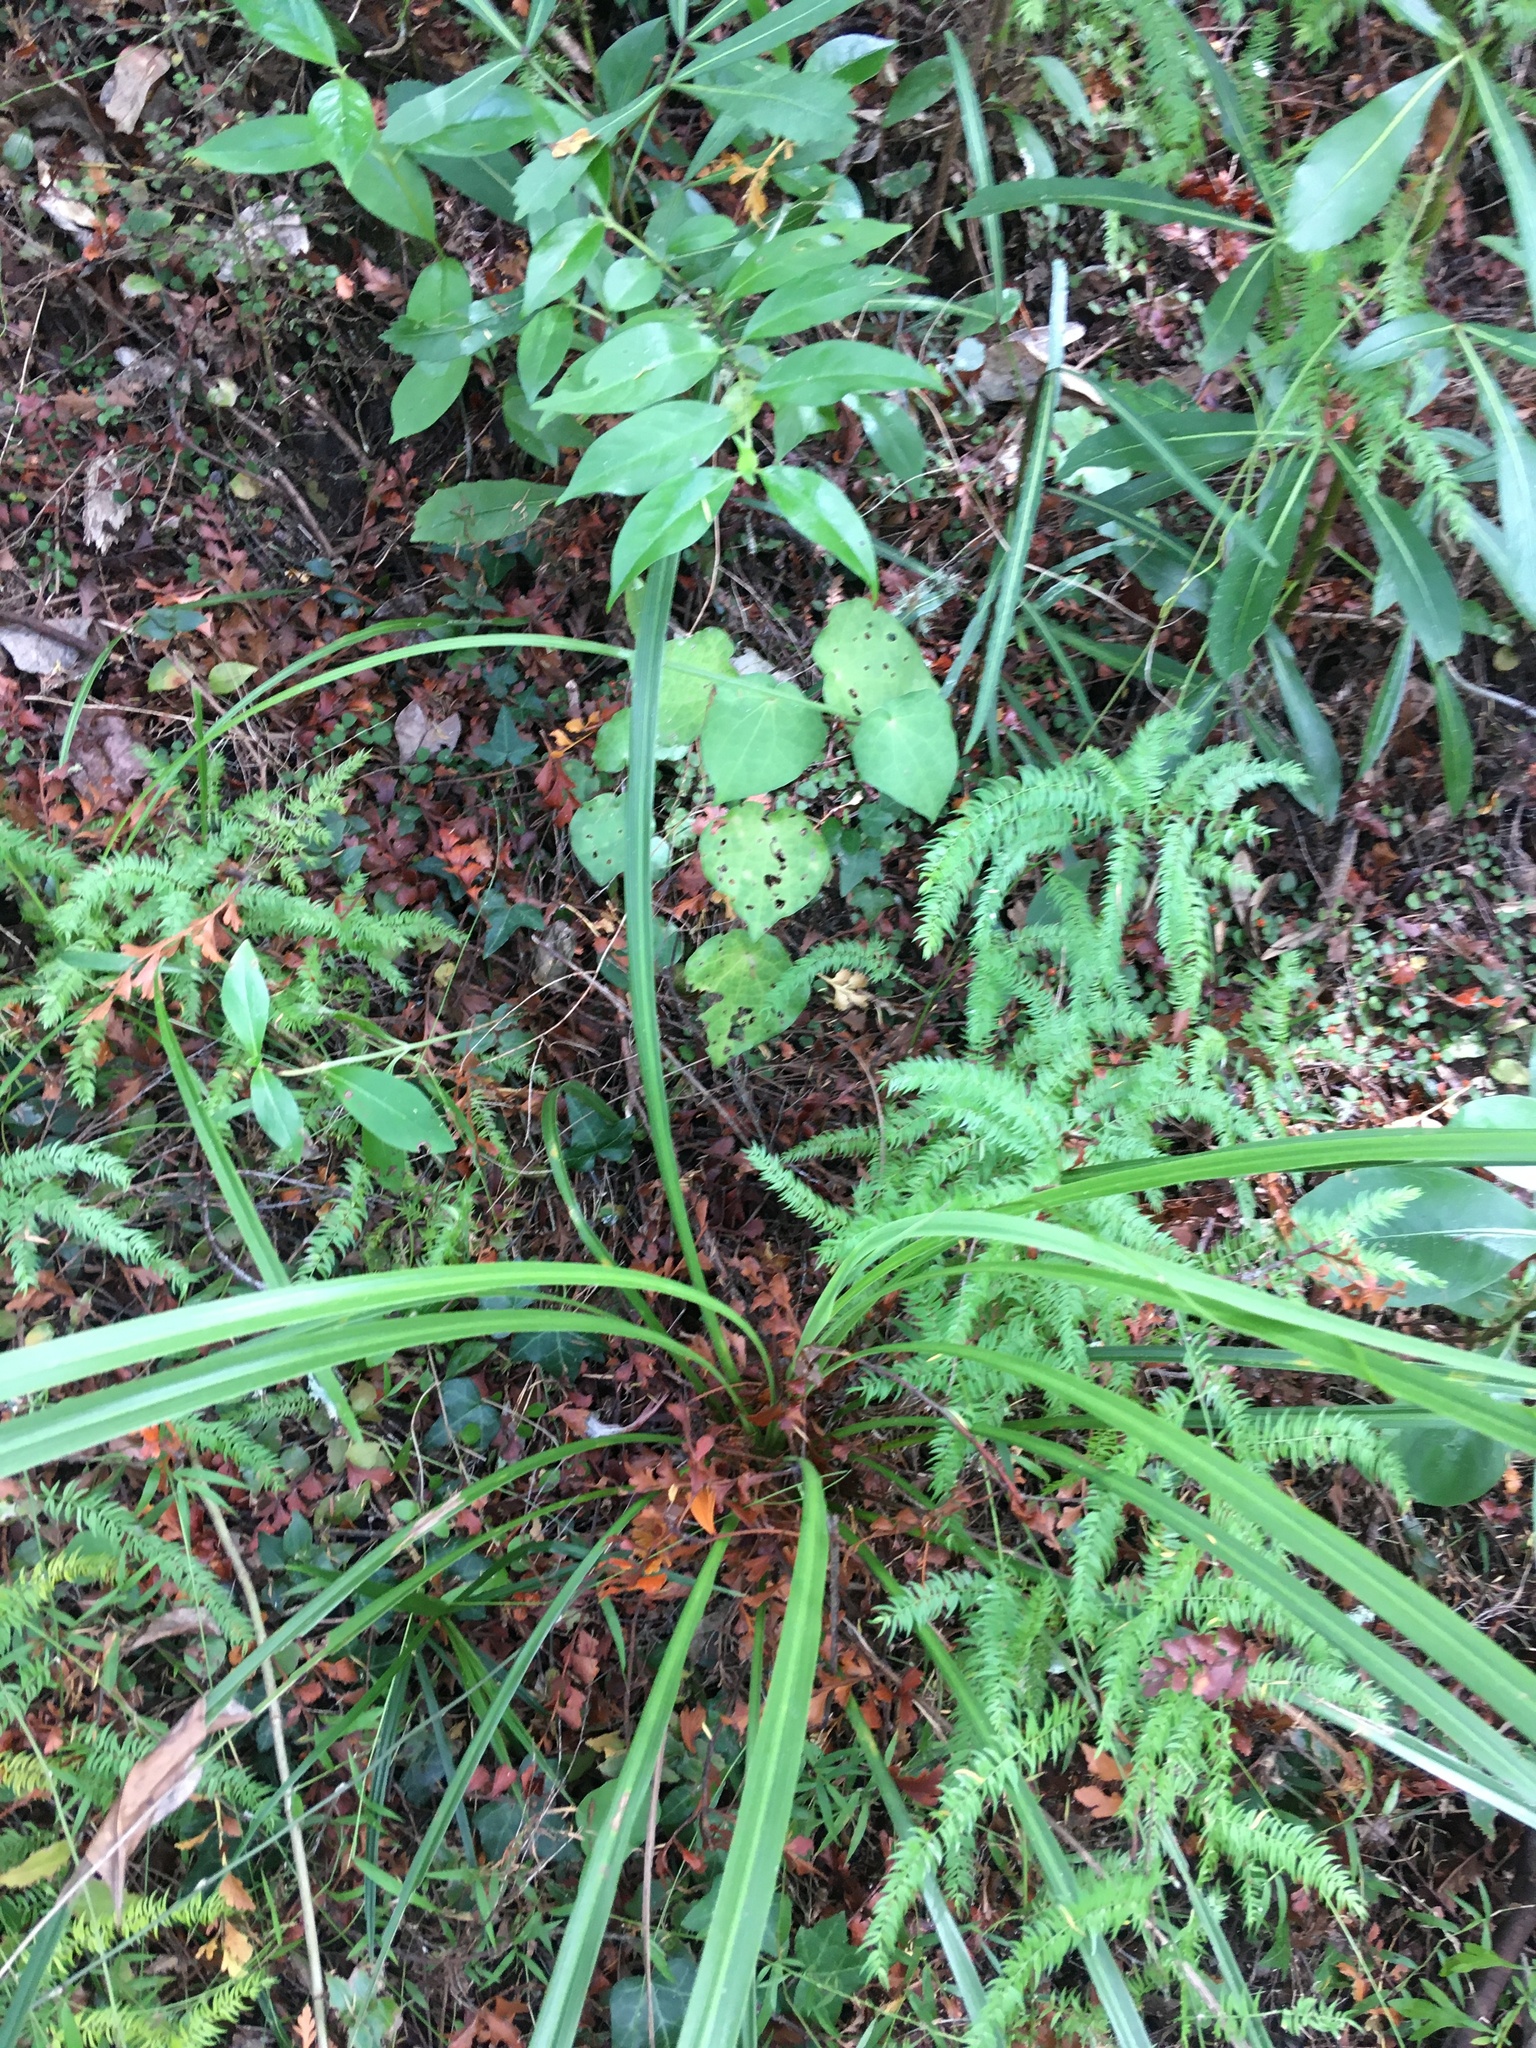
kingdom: Plantae
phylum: Tracheophyta
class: Magnoliopsida
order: Piperales
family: Piperaceae
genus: Macropiper
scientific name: Macropiper excelsum
